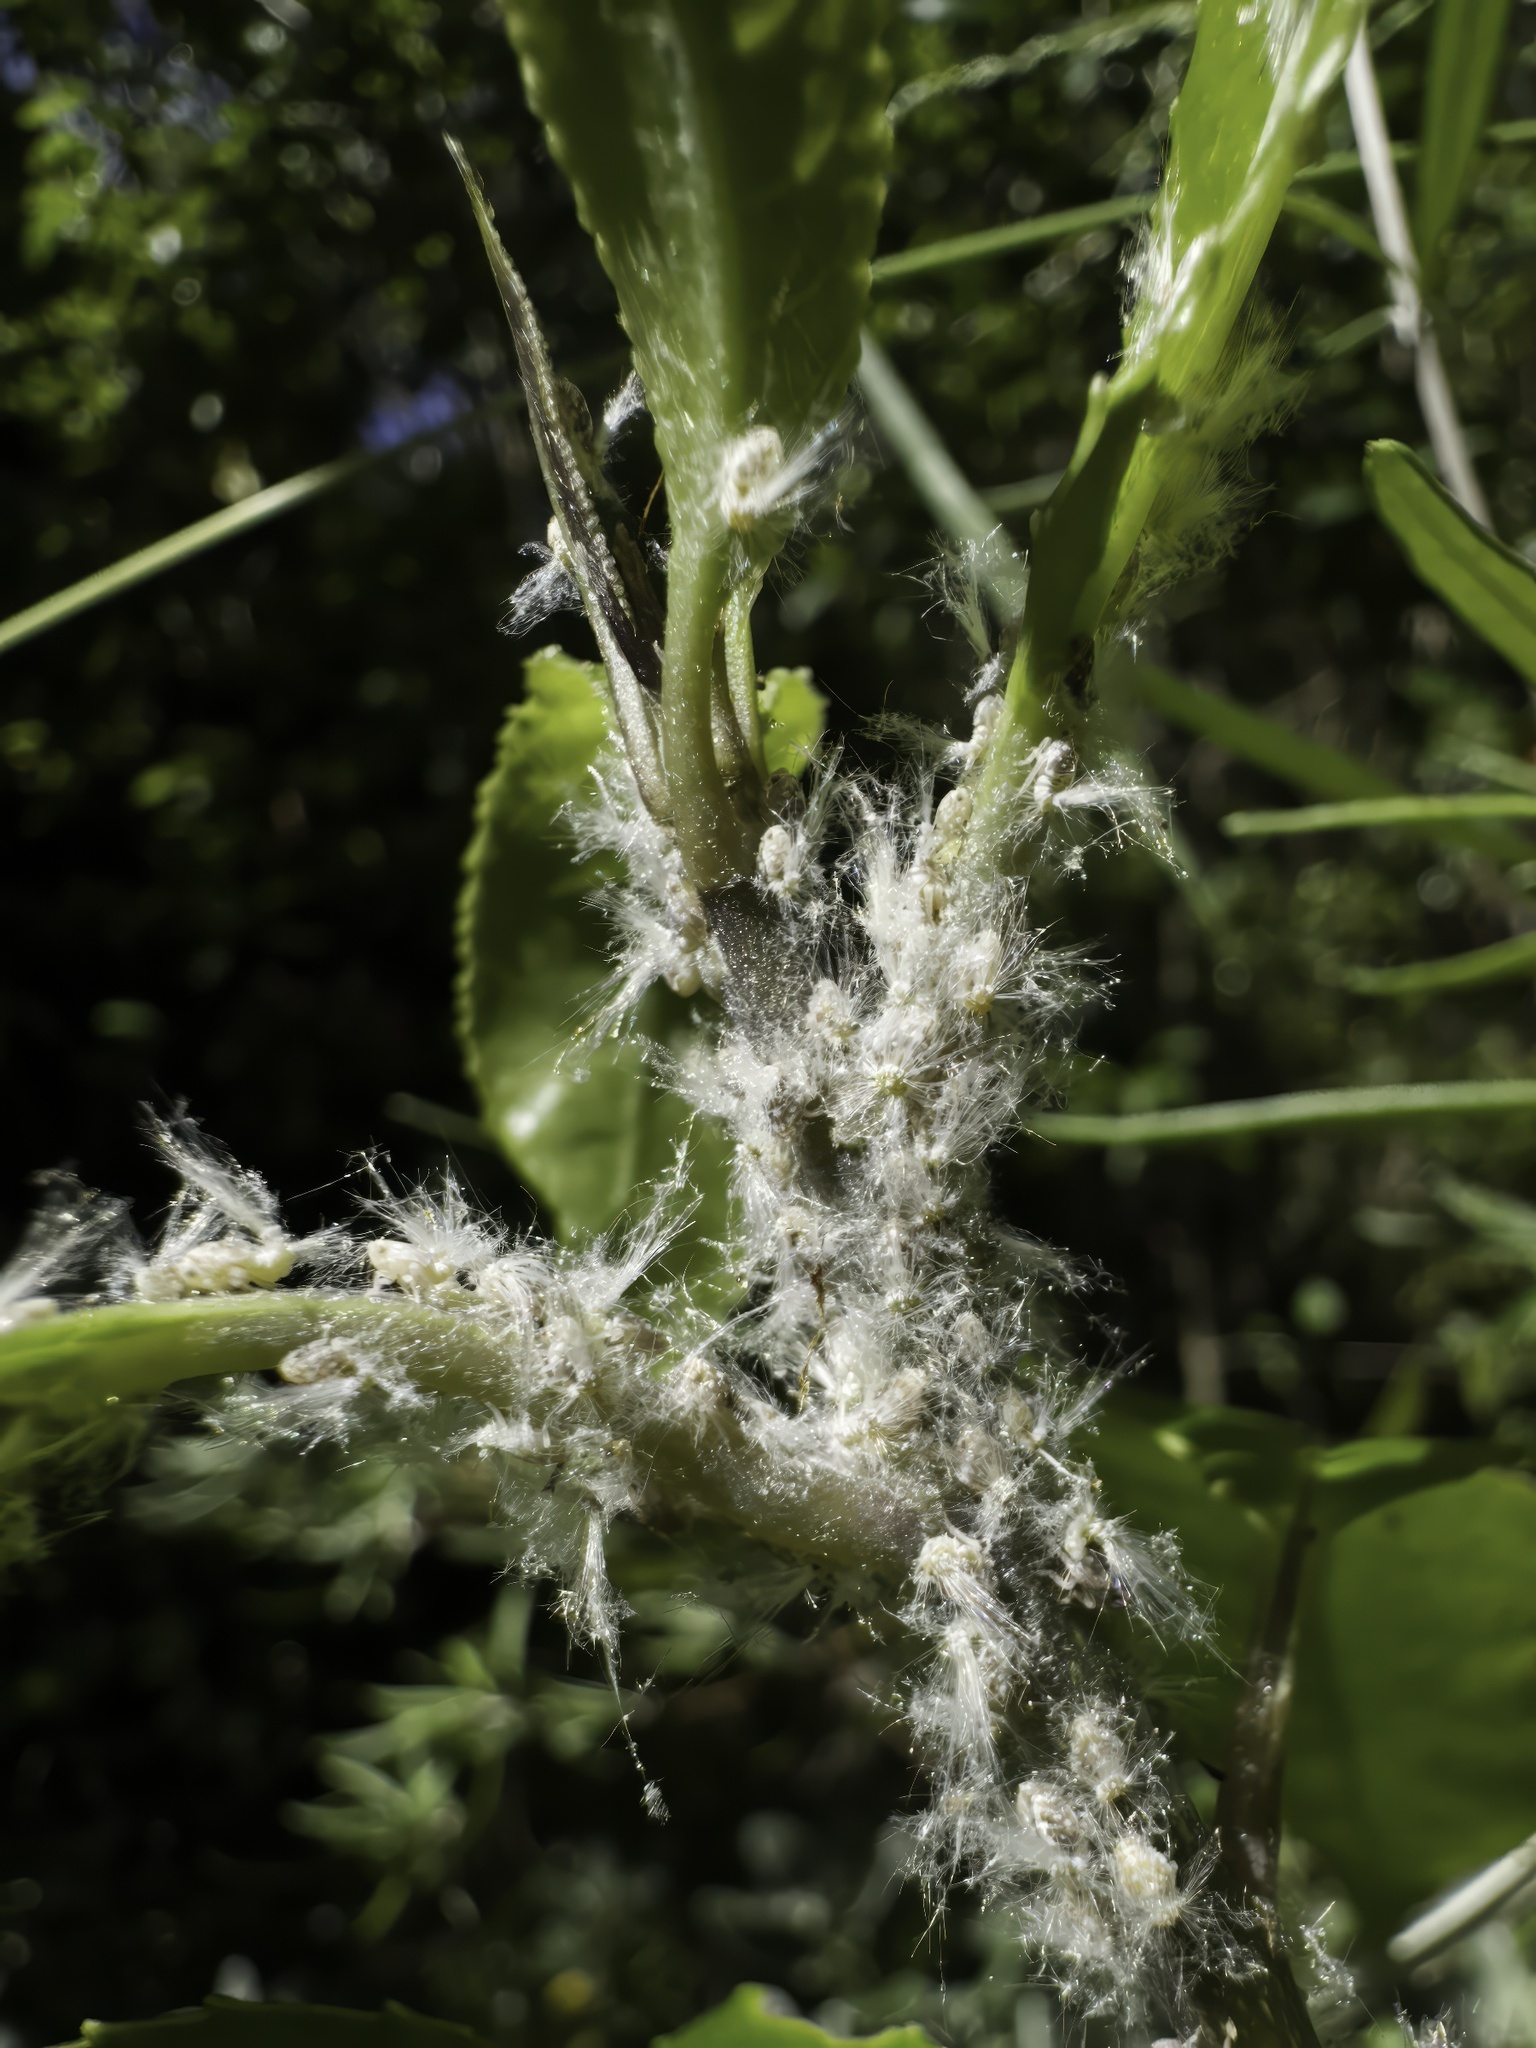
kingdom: Animalia
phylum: Arthropoda
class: Insecta
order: Hemiptera
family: Ricaniidae
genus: Scolypopa
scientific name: Scolypopa australis
